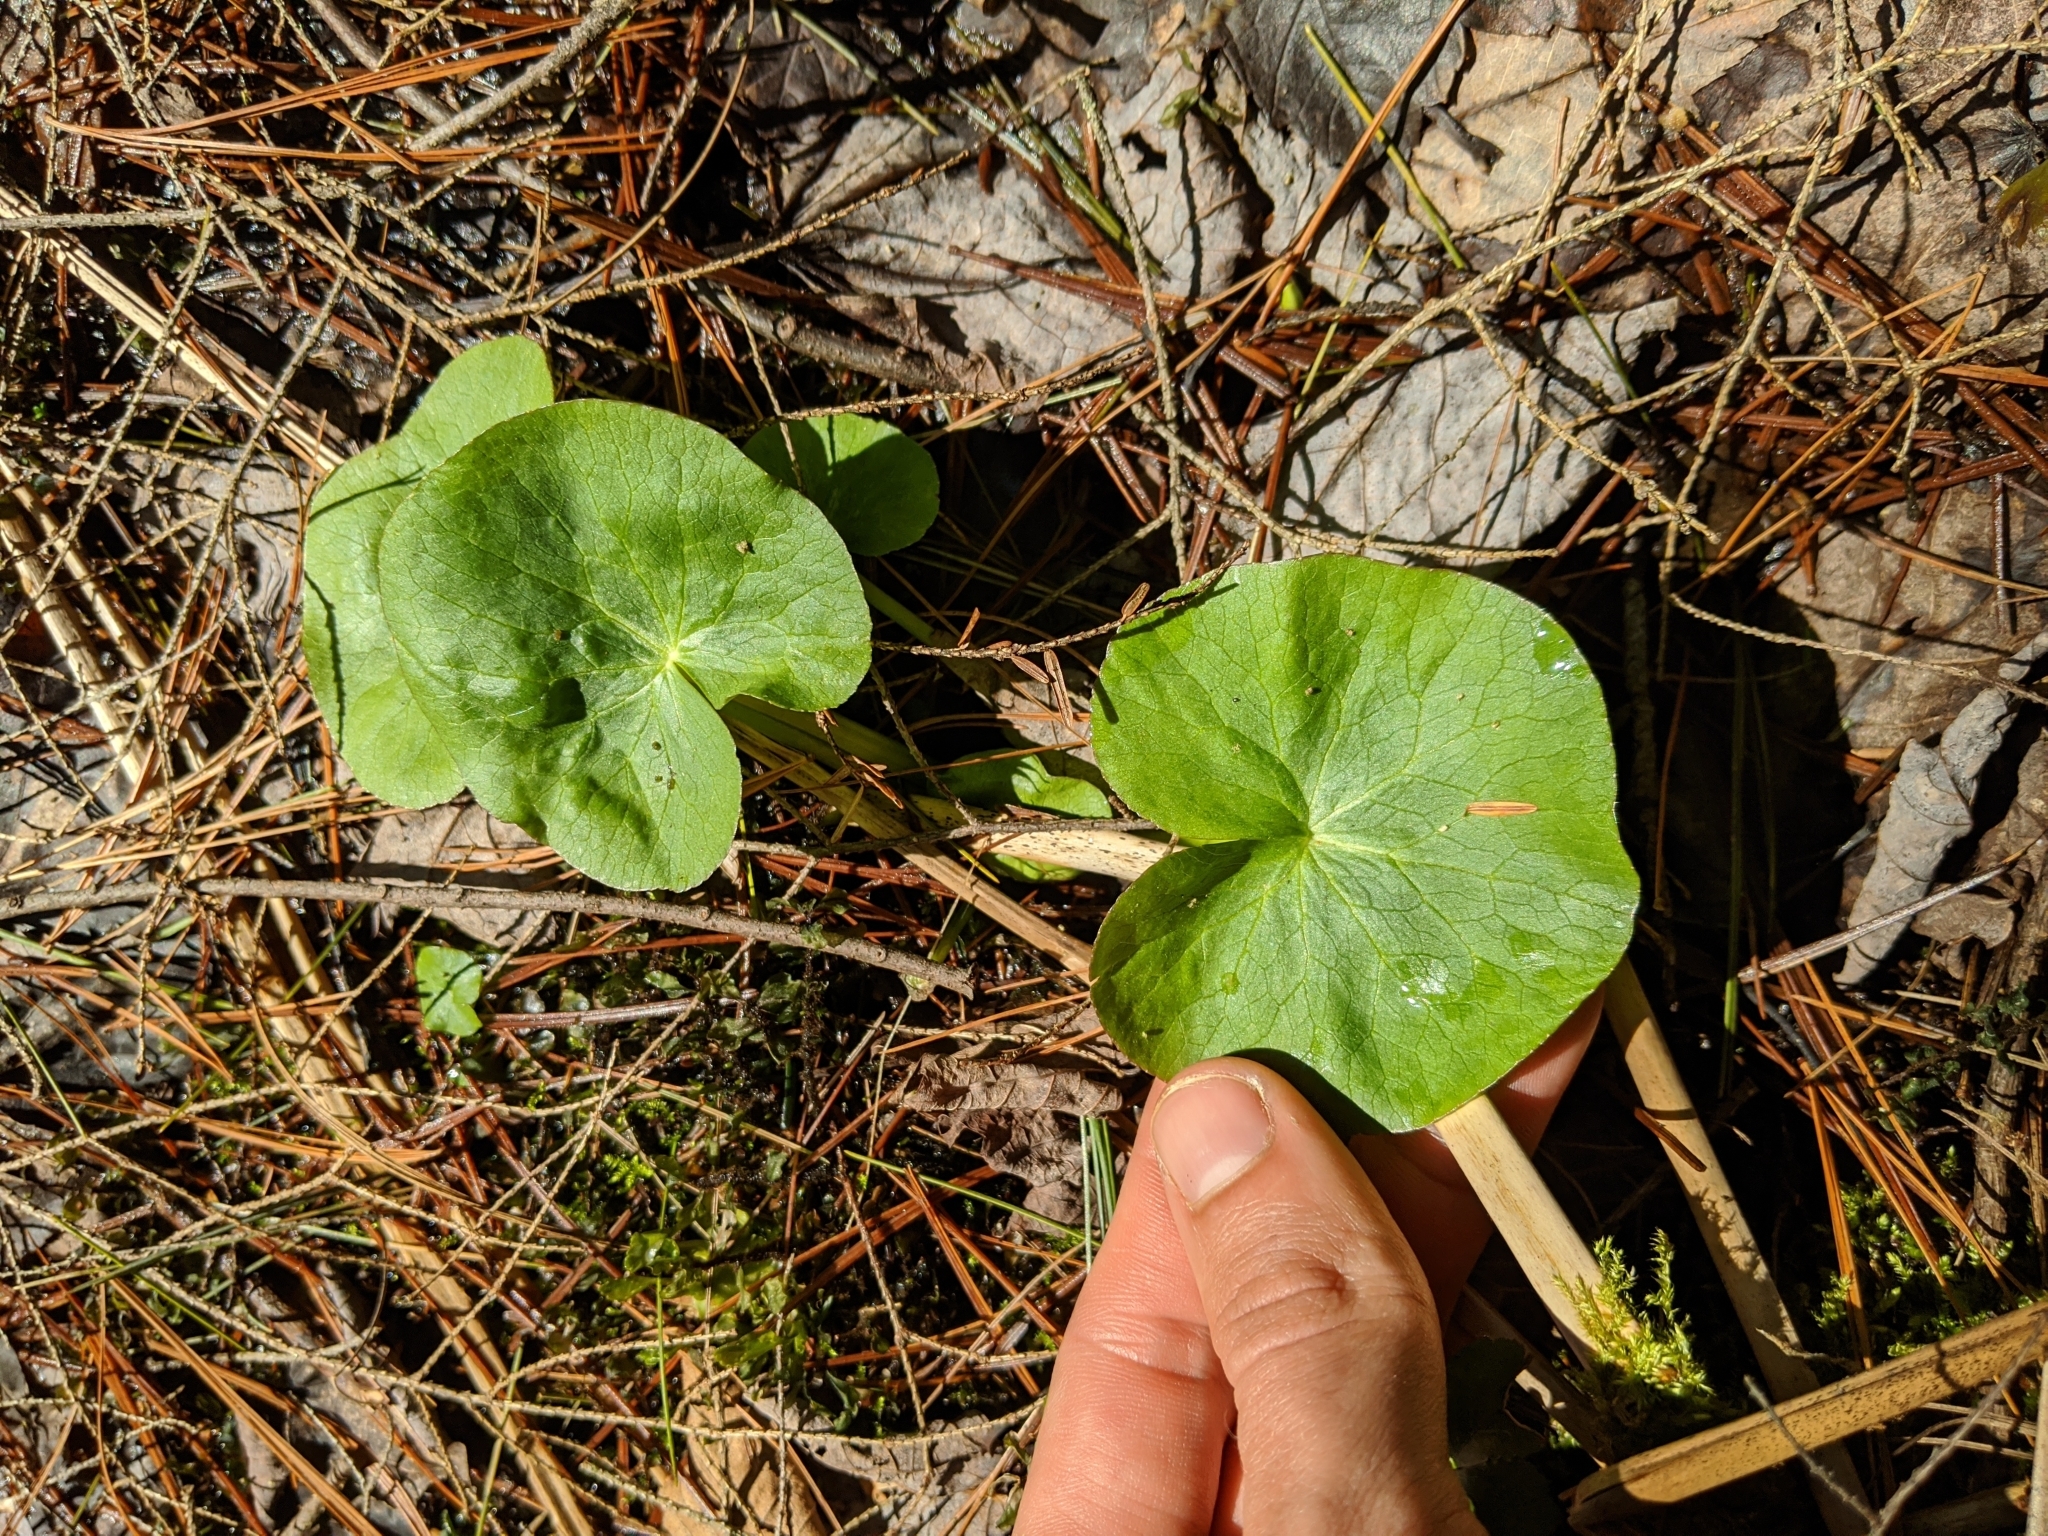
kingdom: Plantae
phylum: Tracheophyta
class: Magnoliopsida
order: Ranunculales
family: Ranunculaceae
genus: Ficaria
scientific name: Ficaria verna
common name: Lesser celandine
